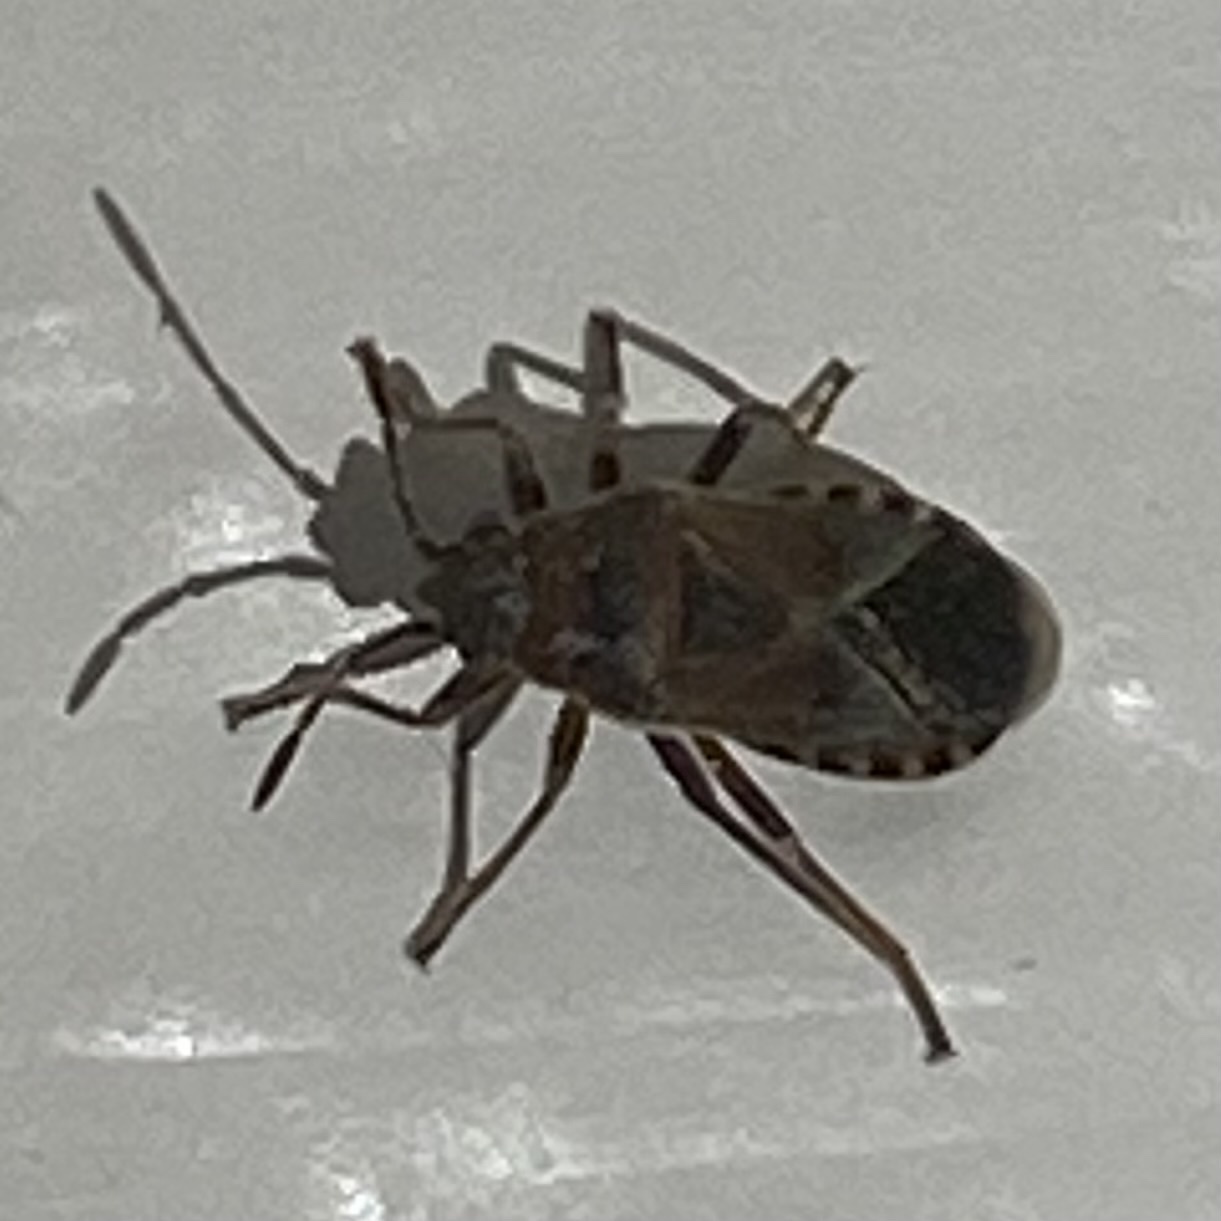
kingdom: Animalia
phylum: Arthropoda
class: Insecta
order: Hemiptera
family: Lygaeidae
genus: Arocatus
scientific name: Arocatus melanocephalus
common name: Lygaeid bug
